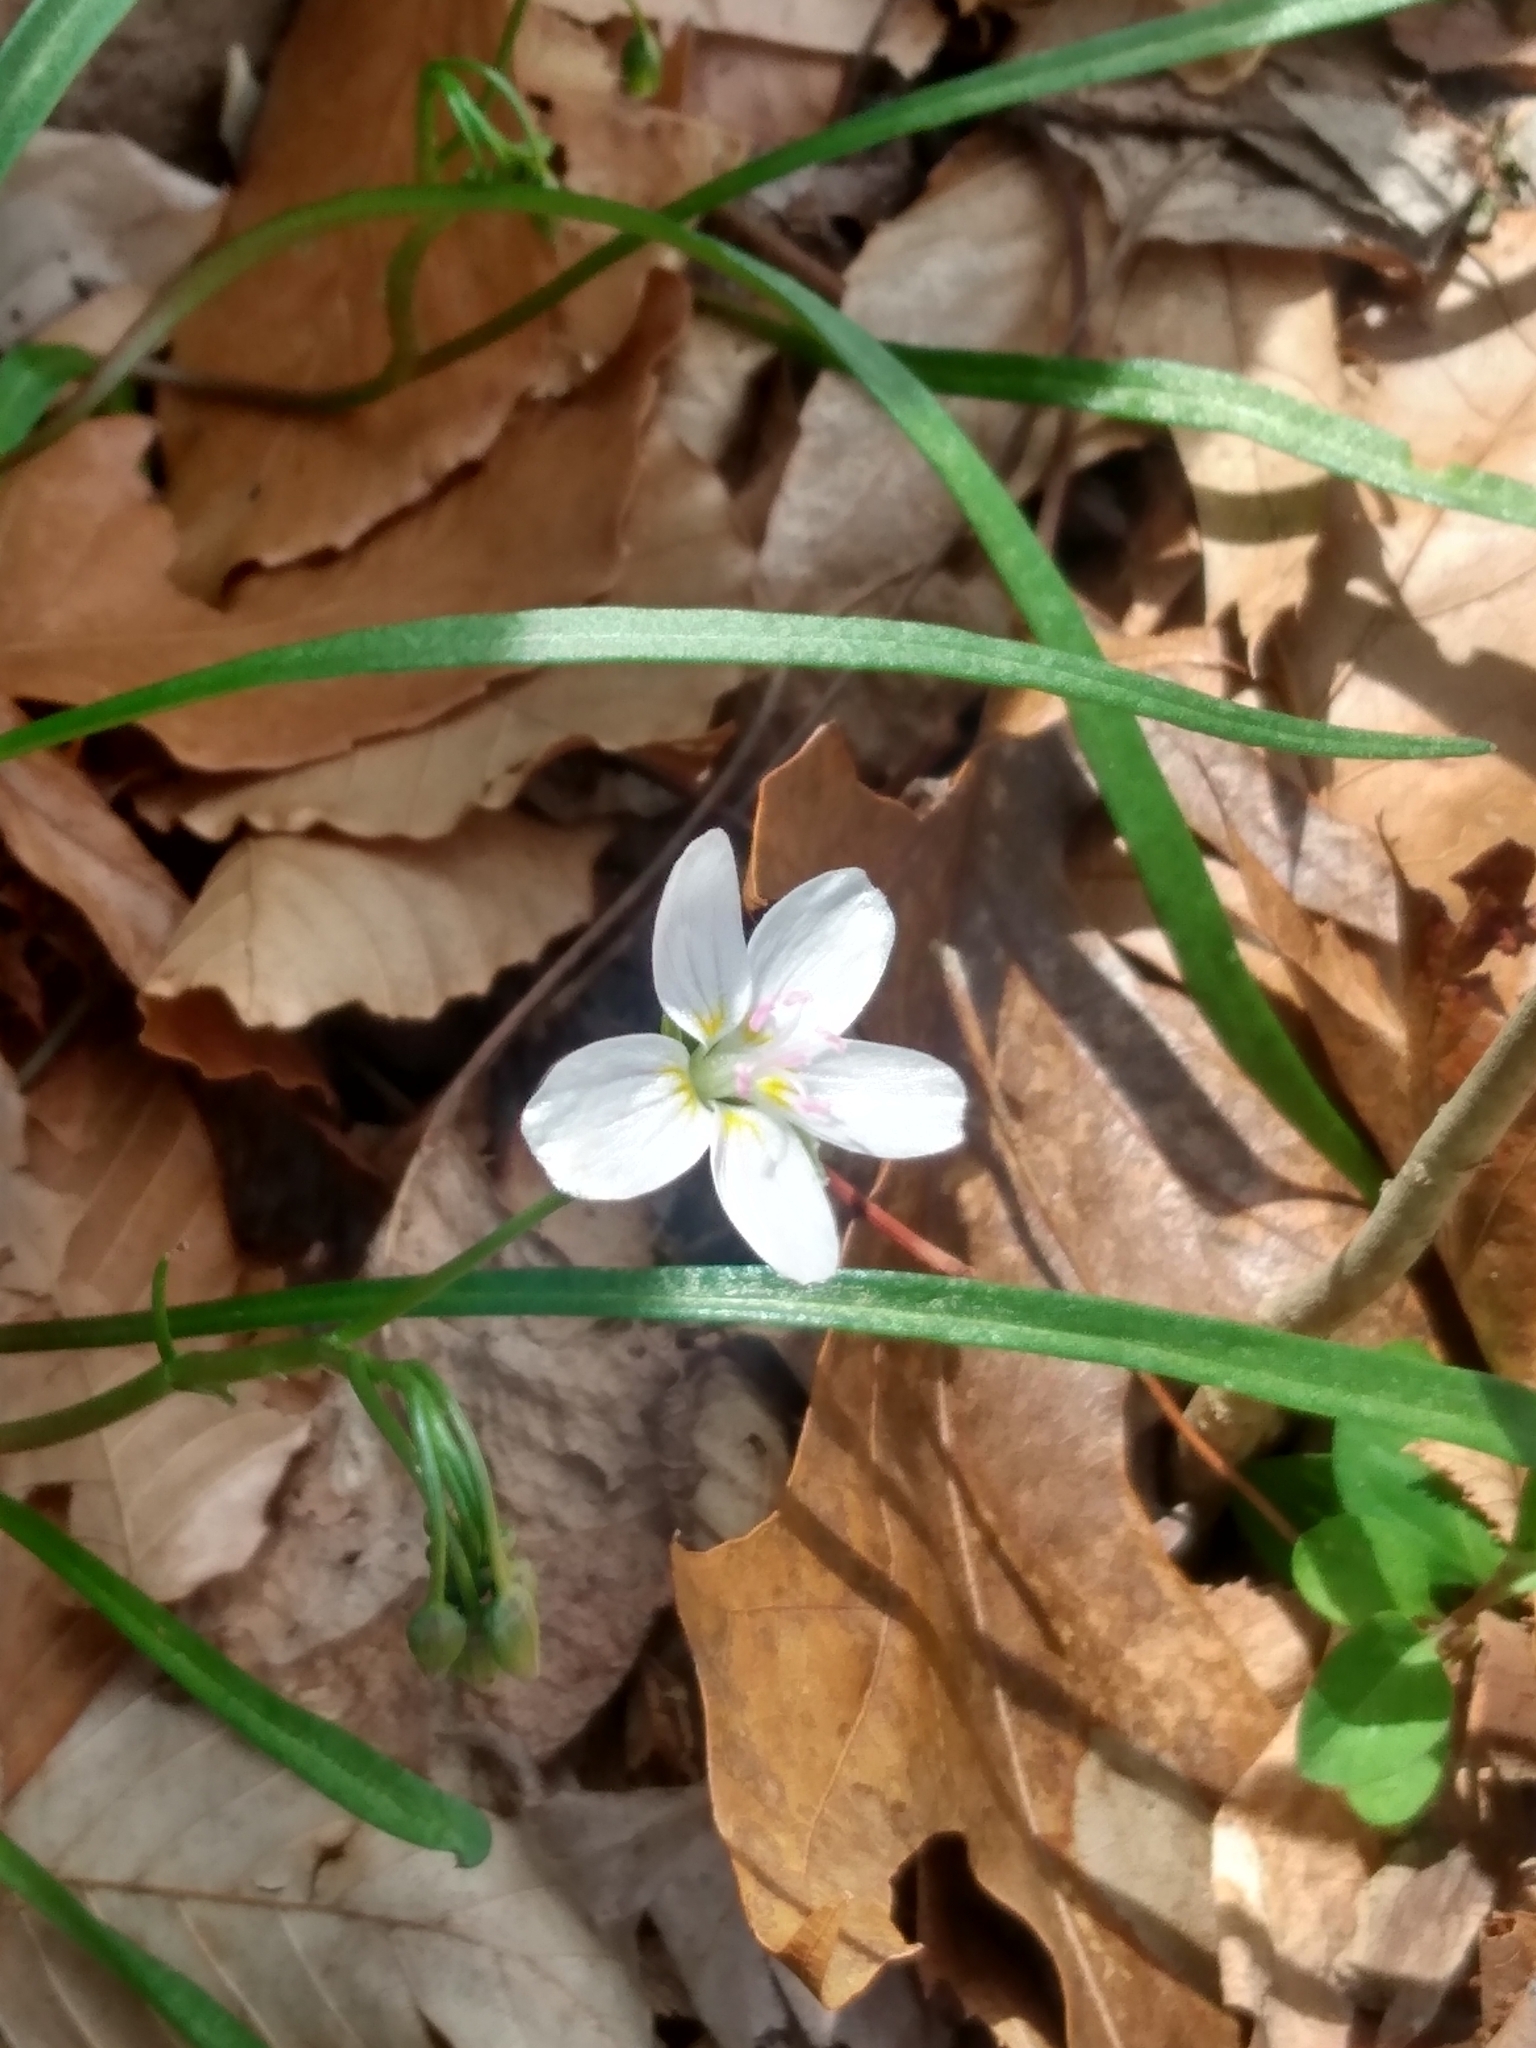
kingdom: Plantae
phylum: Tracheophyta
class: Magnoliopsida
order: Caryophyllales
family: Montiaceae
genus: Claytonia
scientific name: Claytonia virginica
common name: Virginia springbeauty
